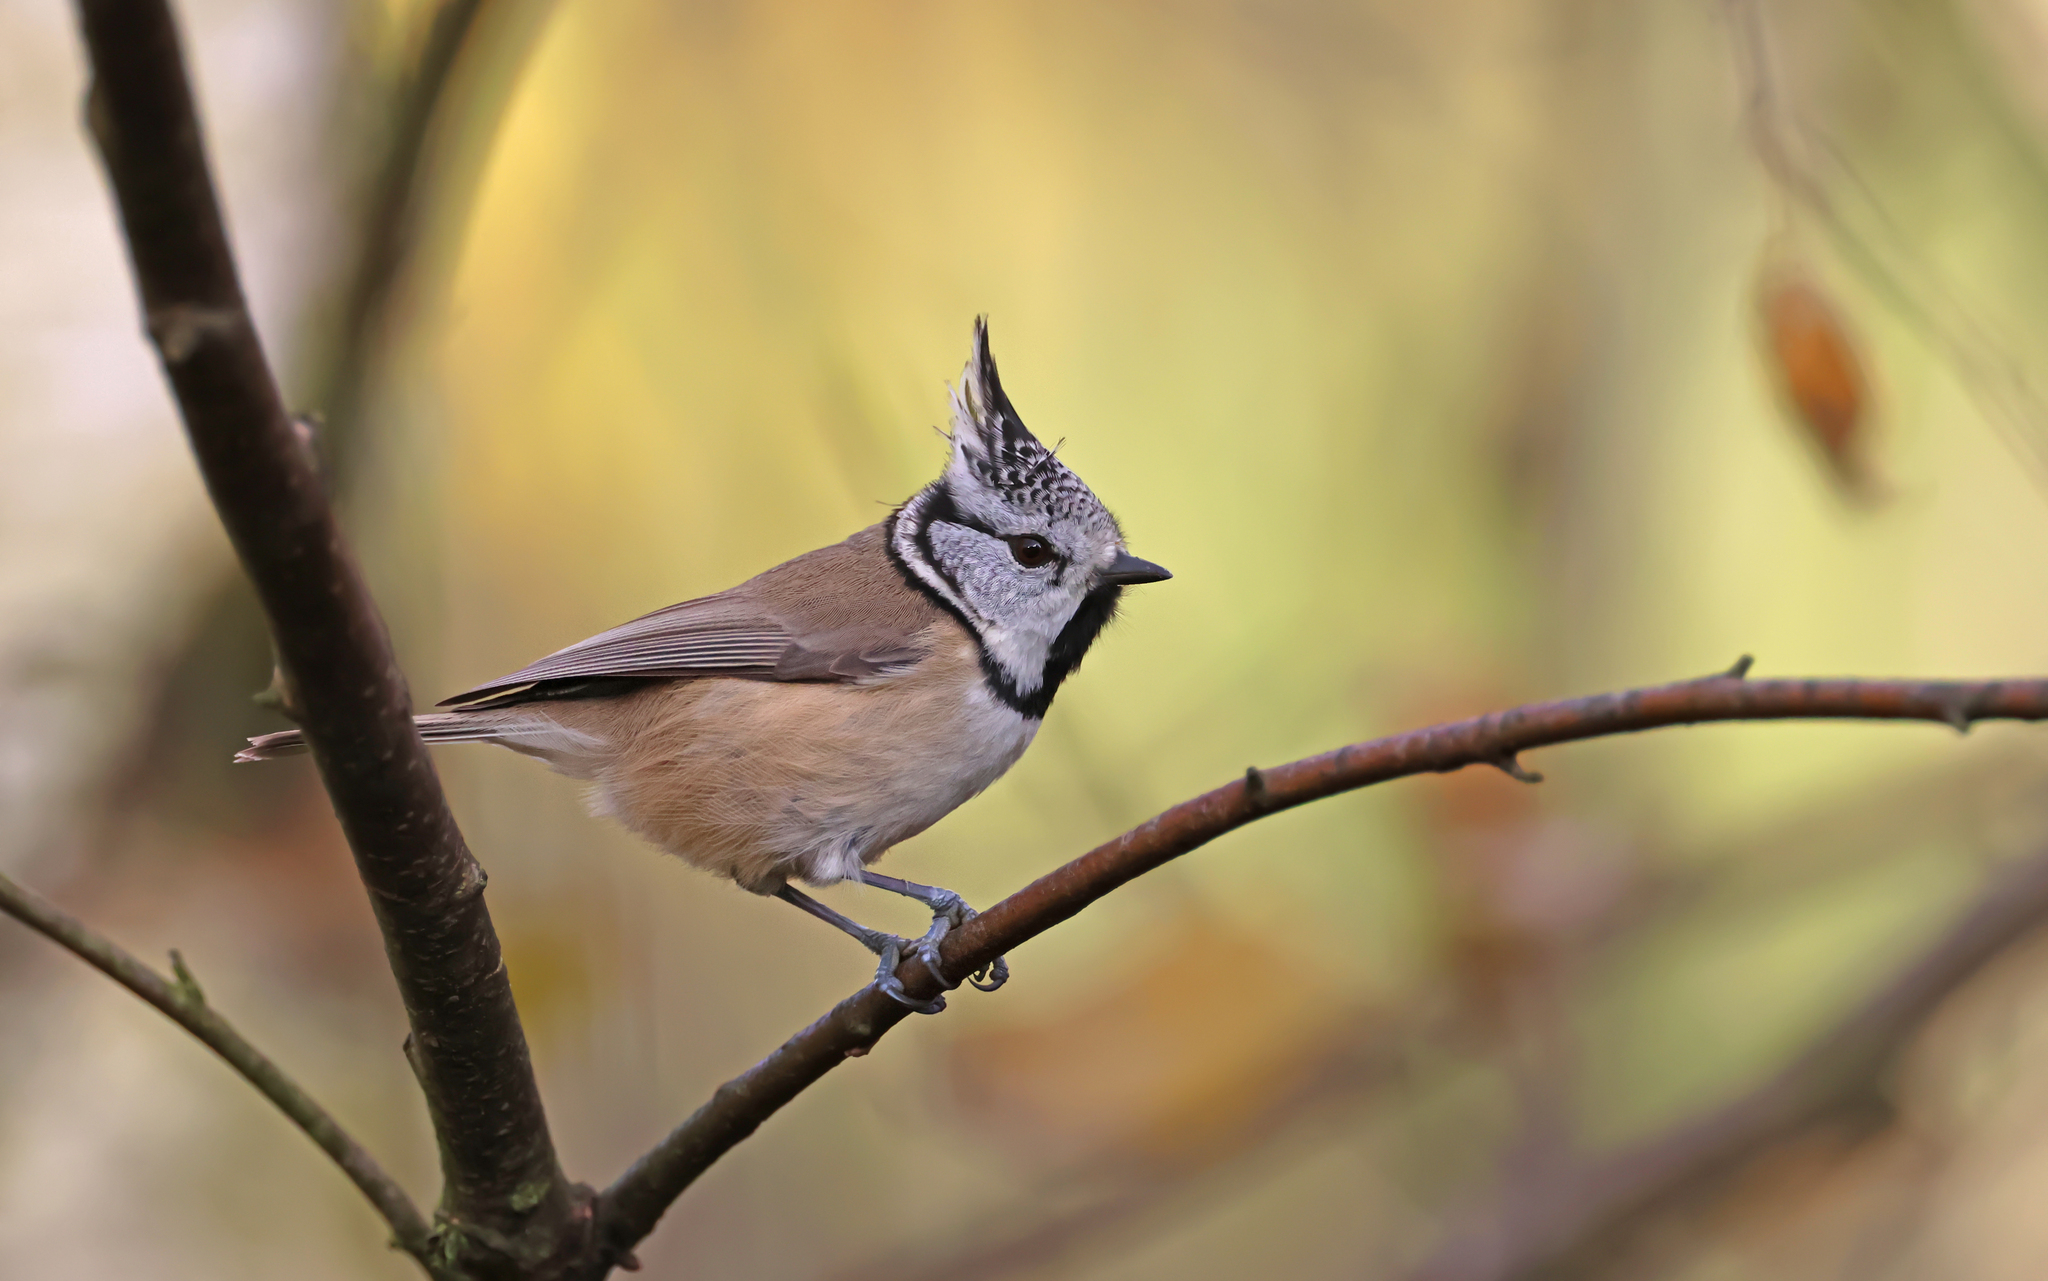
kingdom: Animalia
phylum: Chordata
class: Aves
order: Passeriformes
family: Paridae
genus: Lophophanes
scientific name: Lophophanes cristatus
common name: European crested tit
